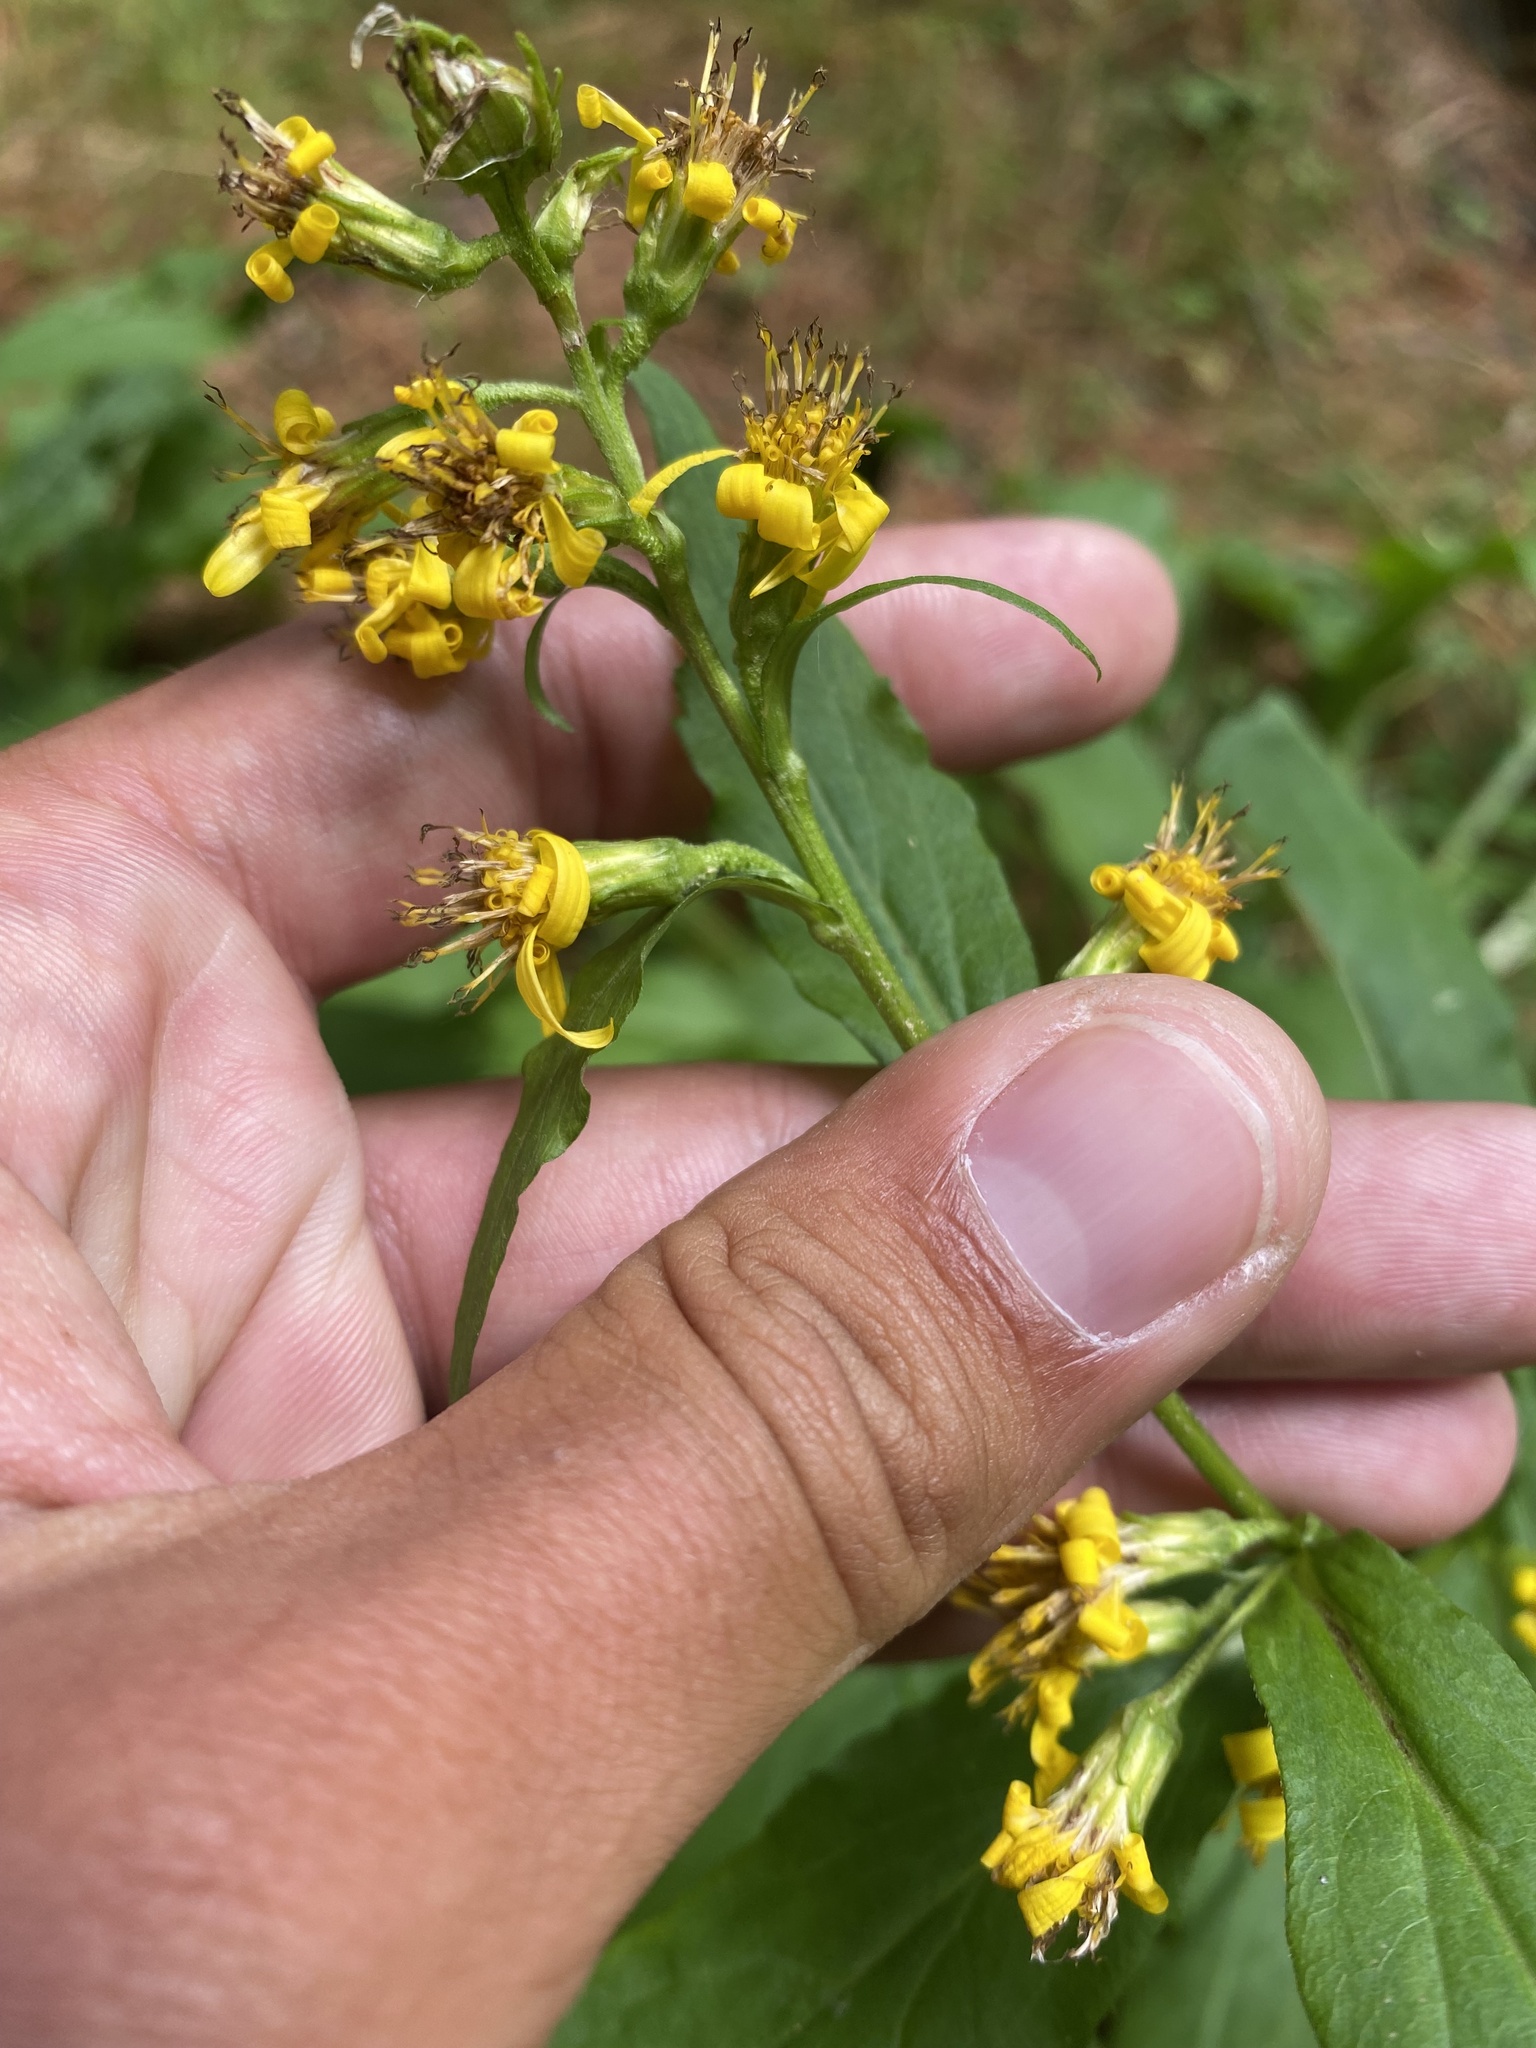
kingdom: Plantae
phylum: Tracheophyta
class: Magnoliopsida
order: Asterales
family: Asteraceae
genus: Solidago
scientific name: Solidago dahurica
